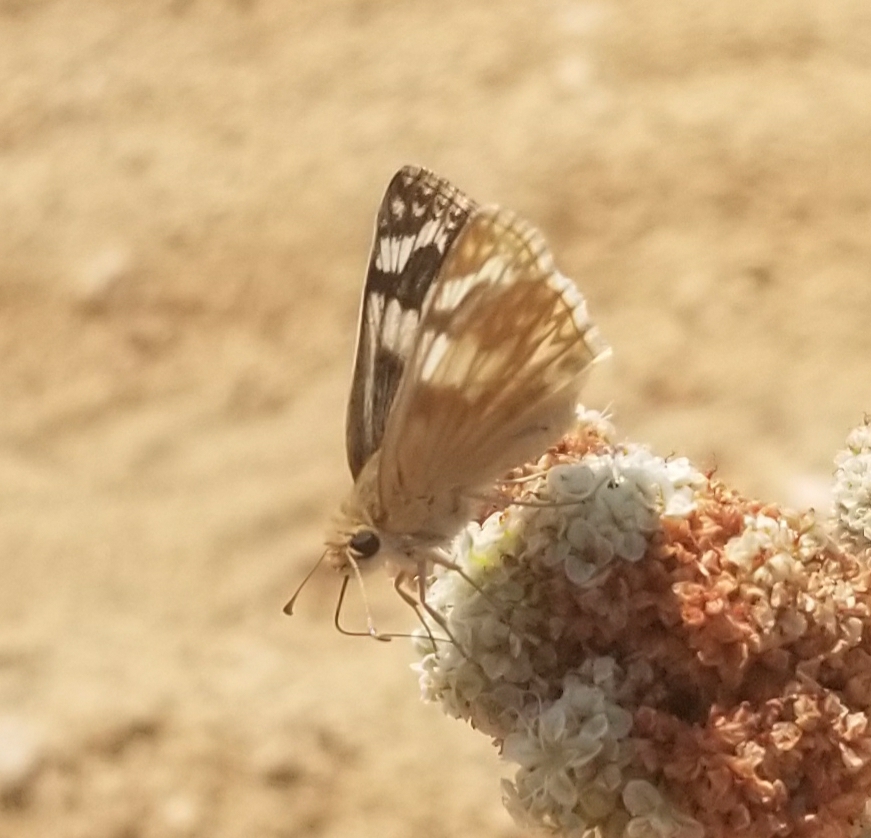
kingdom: Animalia
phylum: Arthropoda
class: Insecta
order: Lepidoptera
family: Hesperiidae
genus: Heliopetes
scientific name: Heliopetes ericetorum
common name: Northern white-skipper
